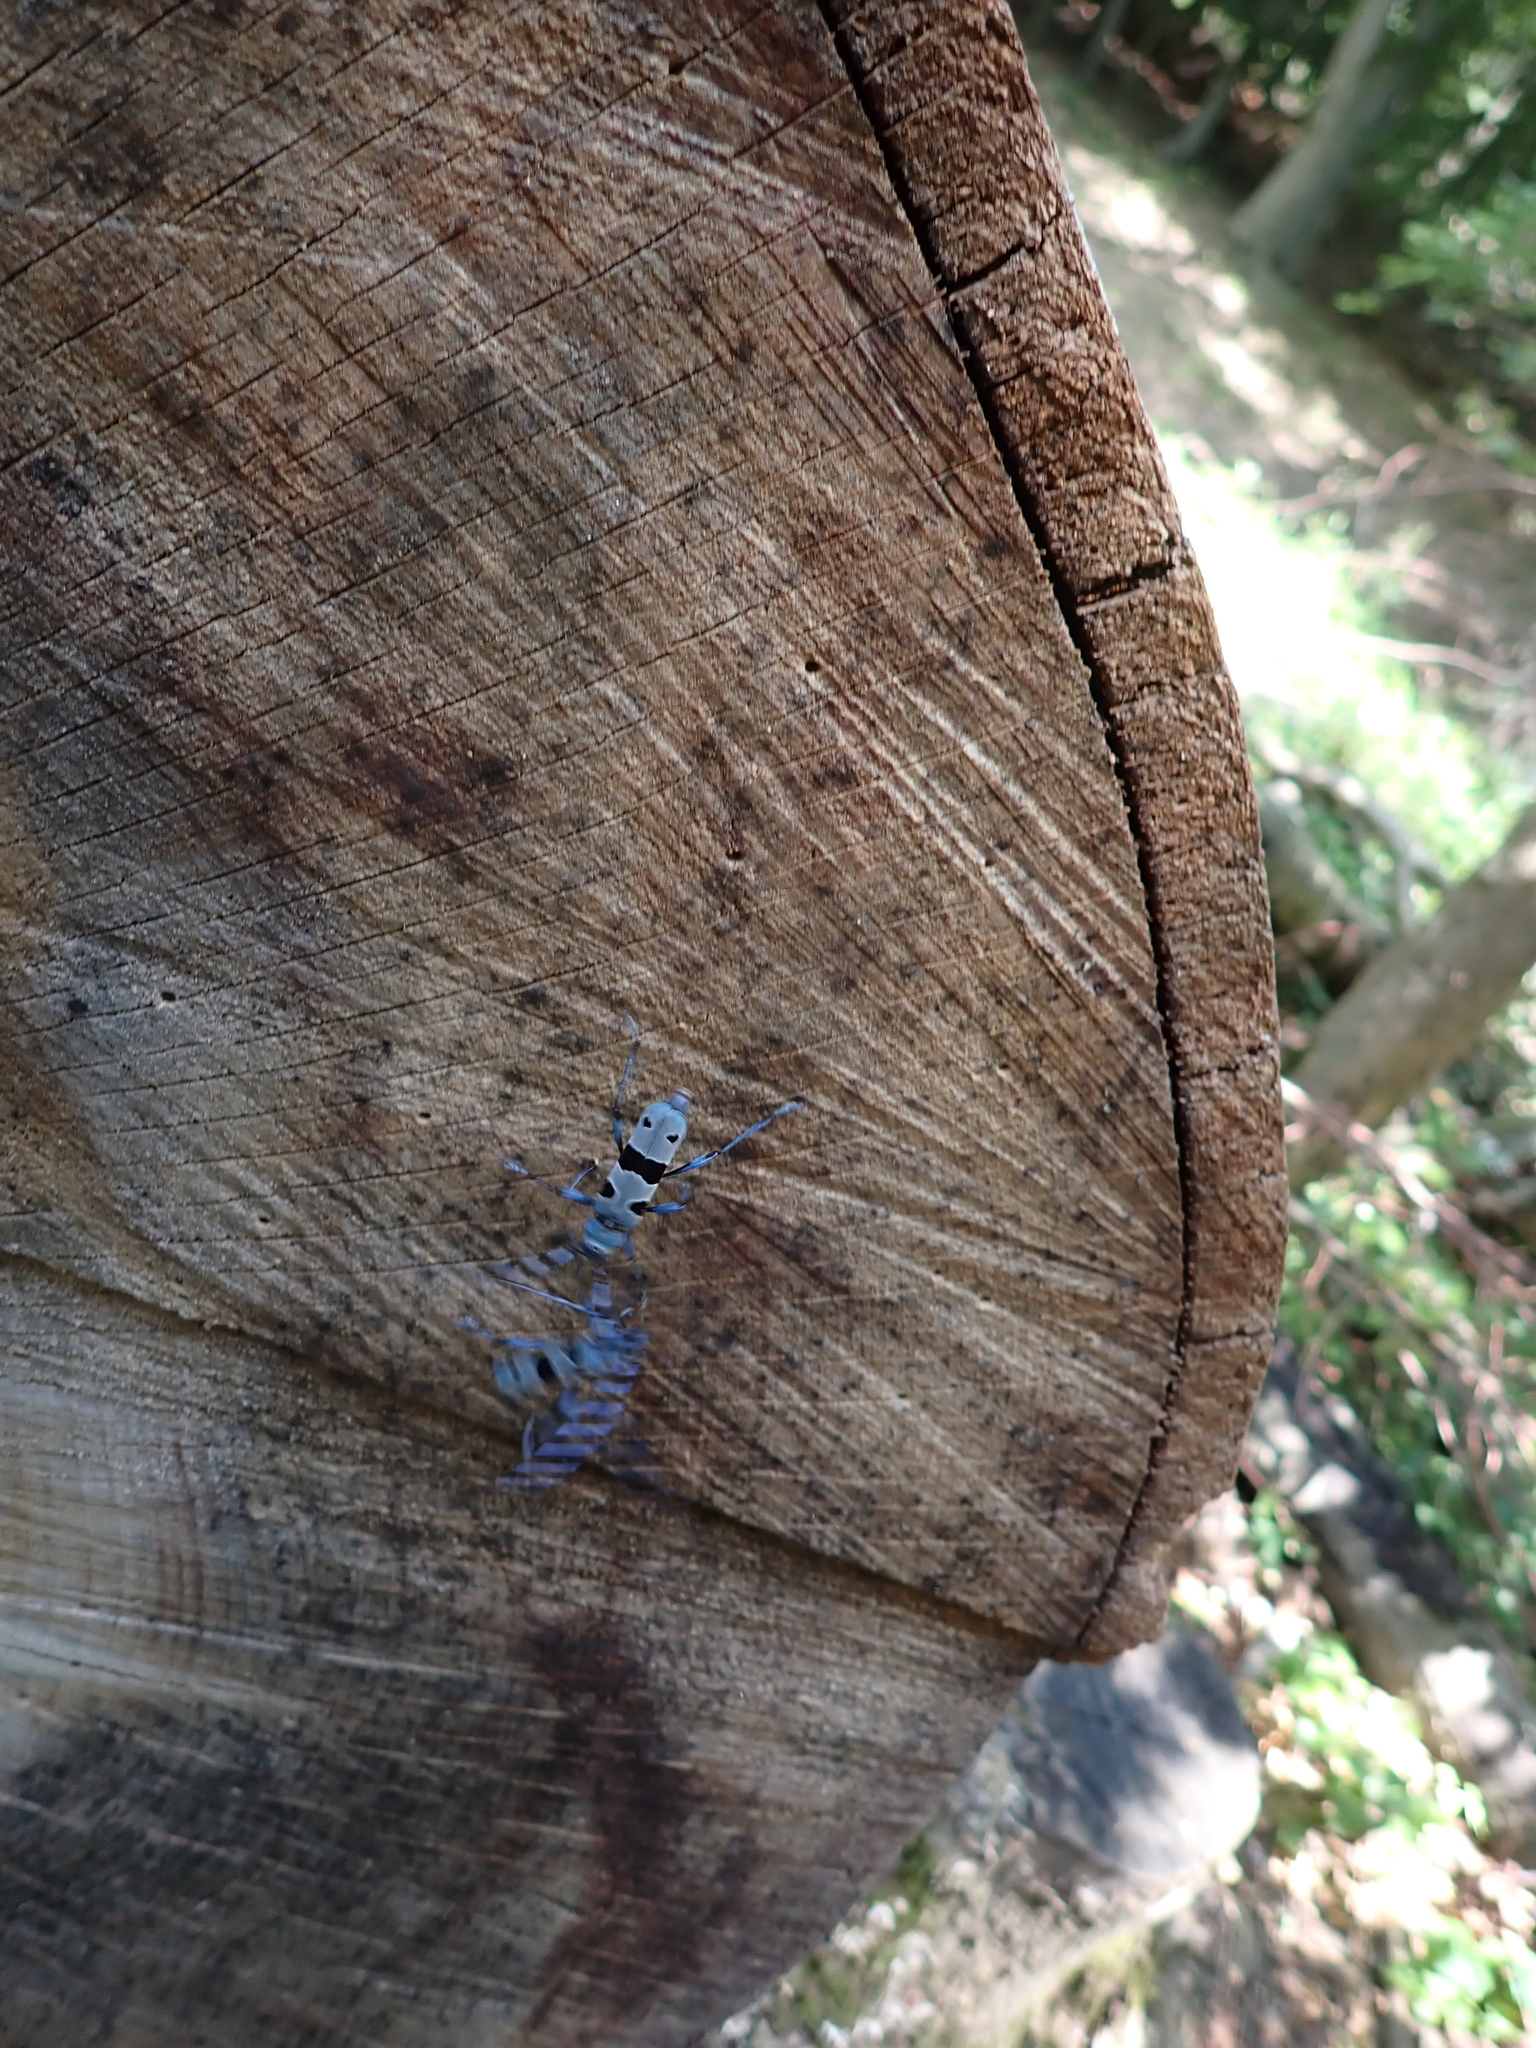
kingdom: Animalia
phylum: Arthropoda
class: Insecta
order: Coleoptera
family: Cerambycidae
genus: Rosalia
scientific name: Rosalia alpina
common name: Rosalia longicorn
